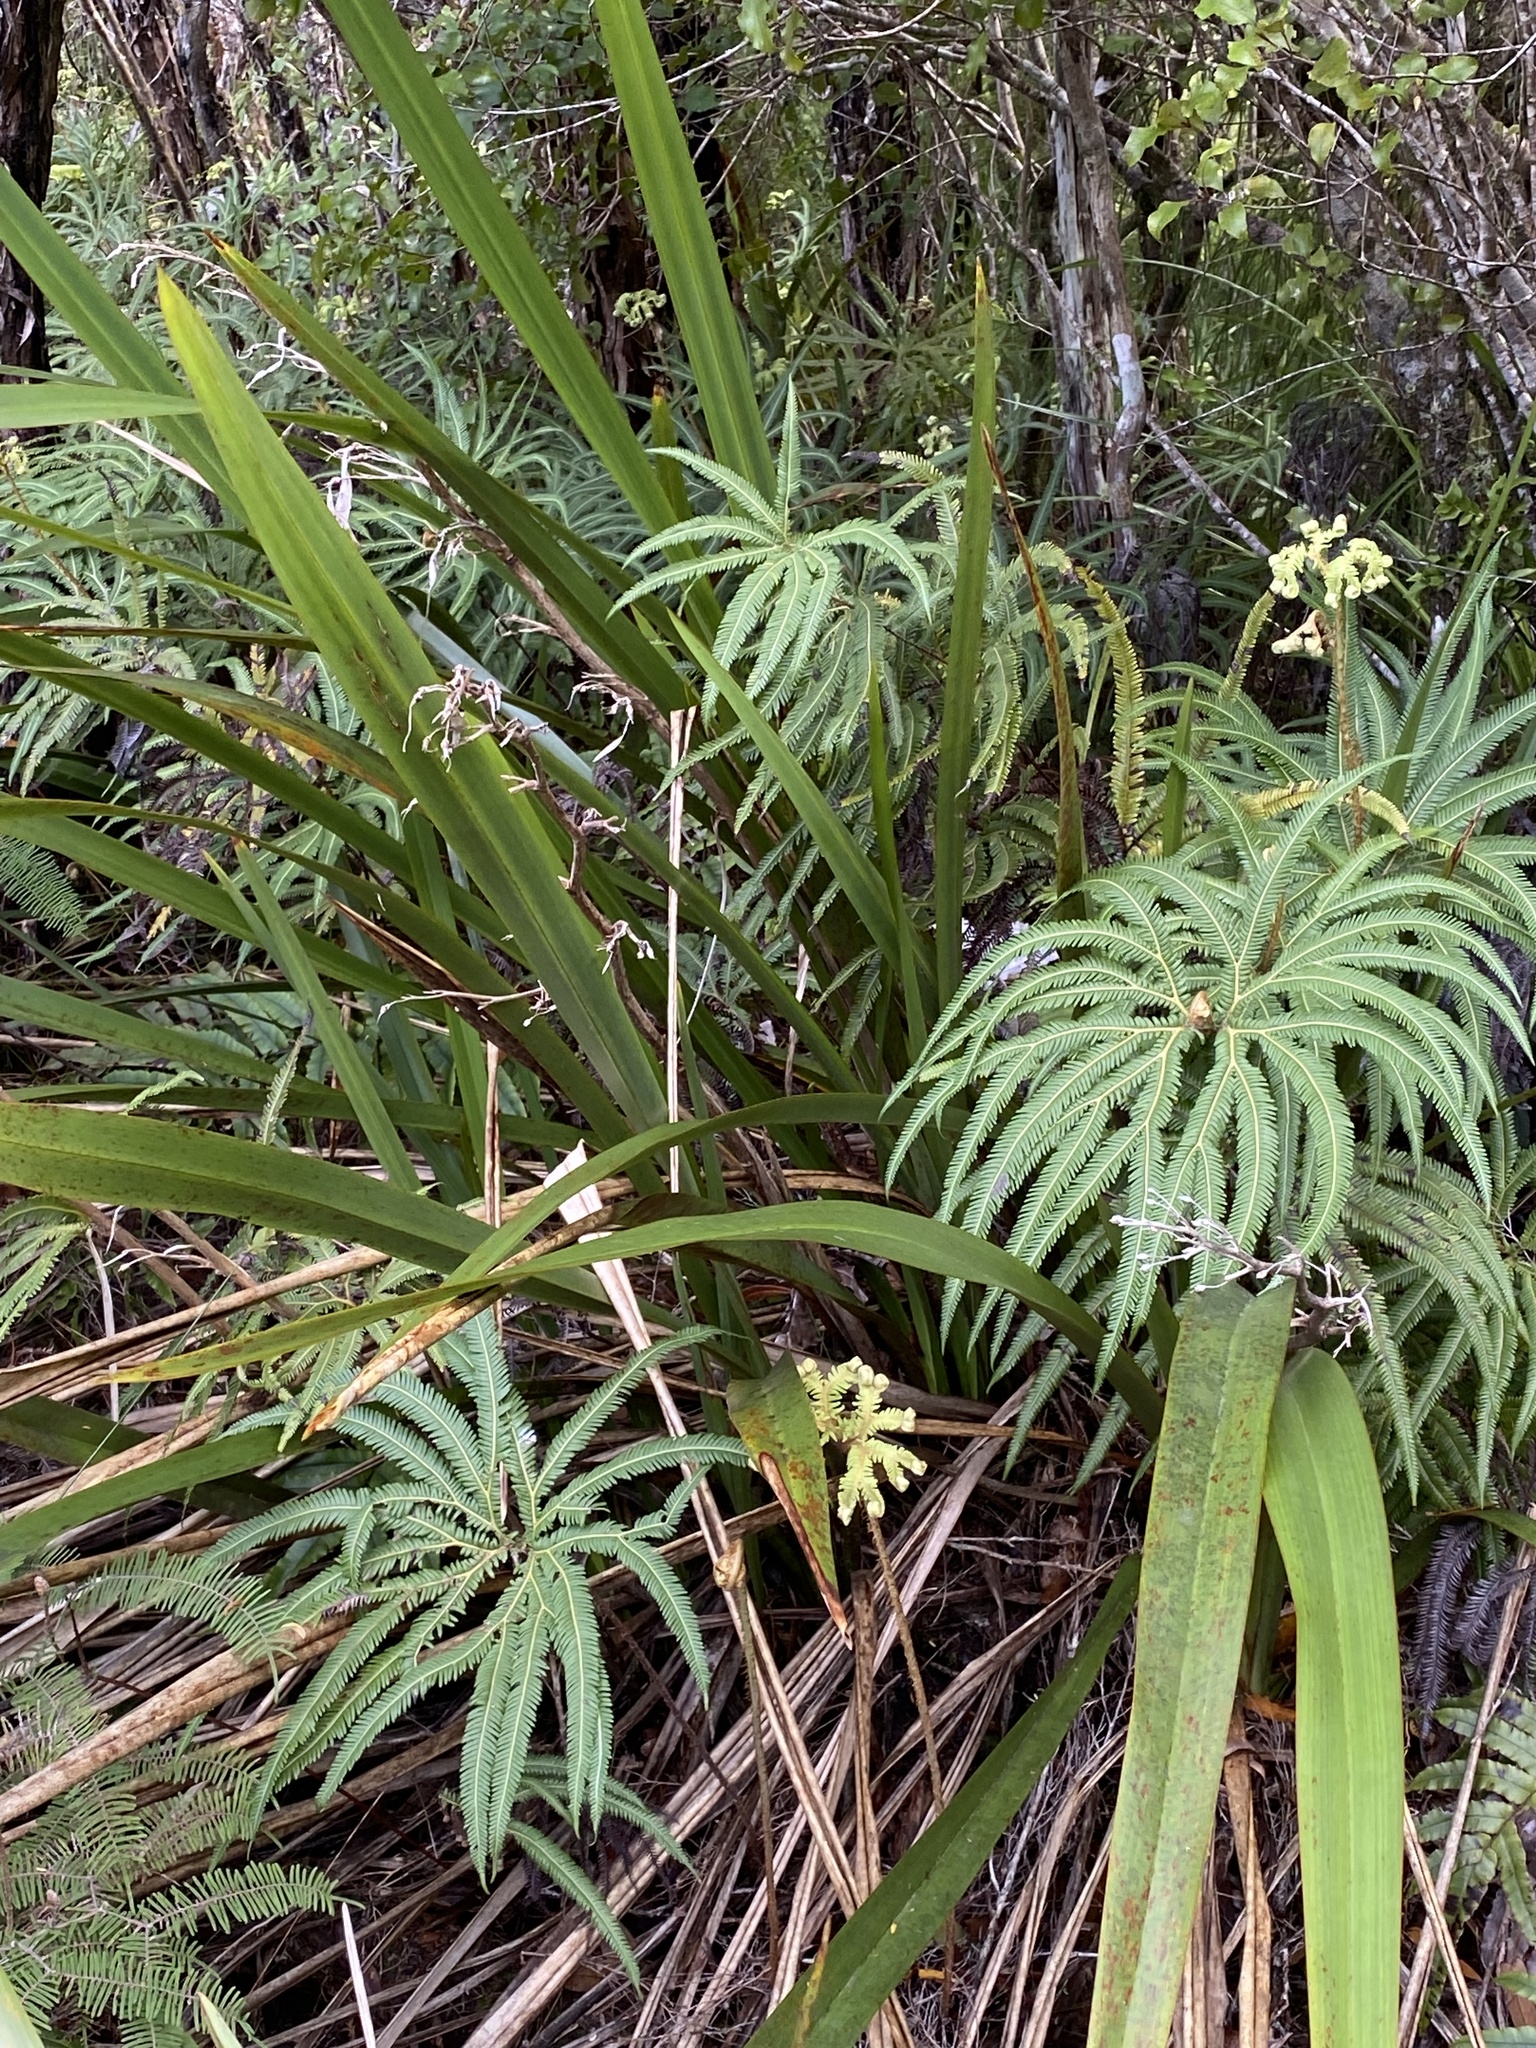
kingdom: Plantae
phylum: Tracheophyta
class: Polypodiopsida
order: Gleicheniales
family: Gleicheniaceae
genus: Sticherus
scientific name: Sticherus cunninghamii
